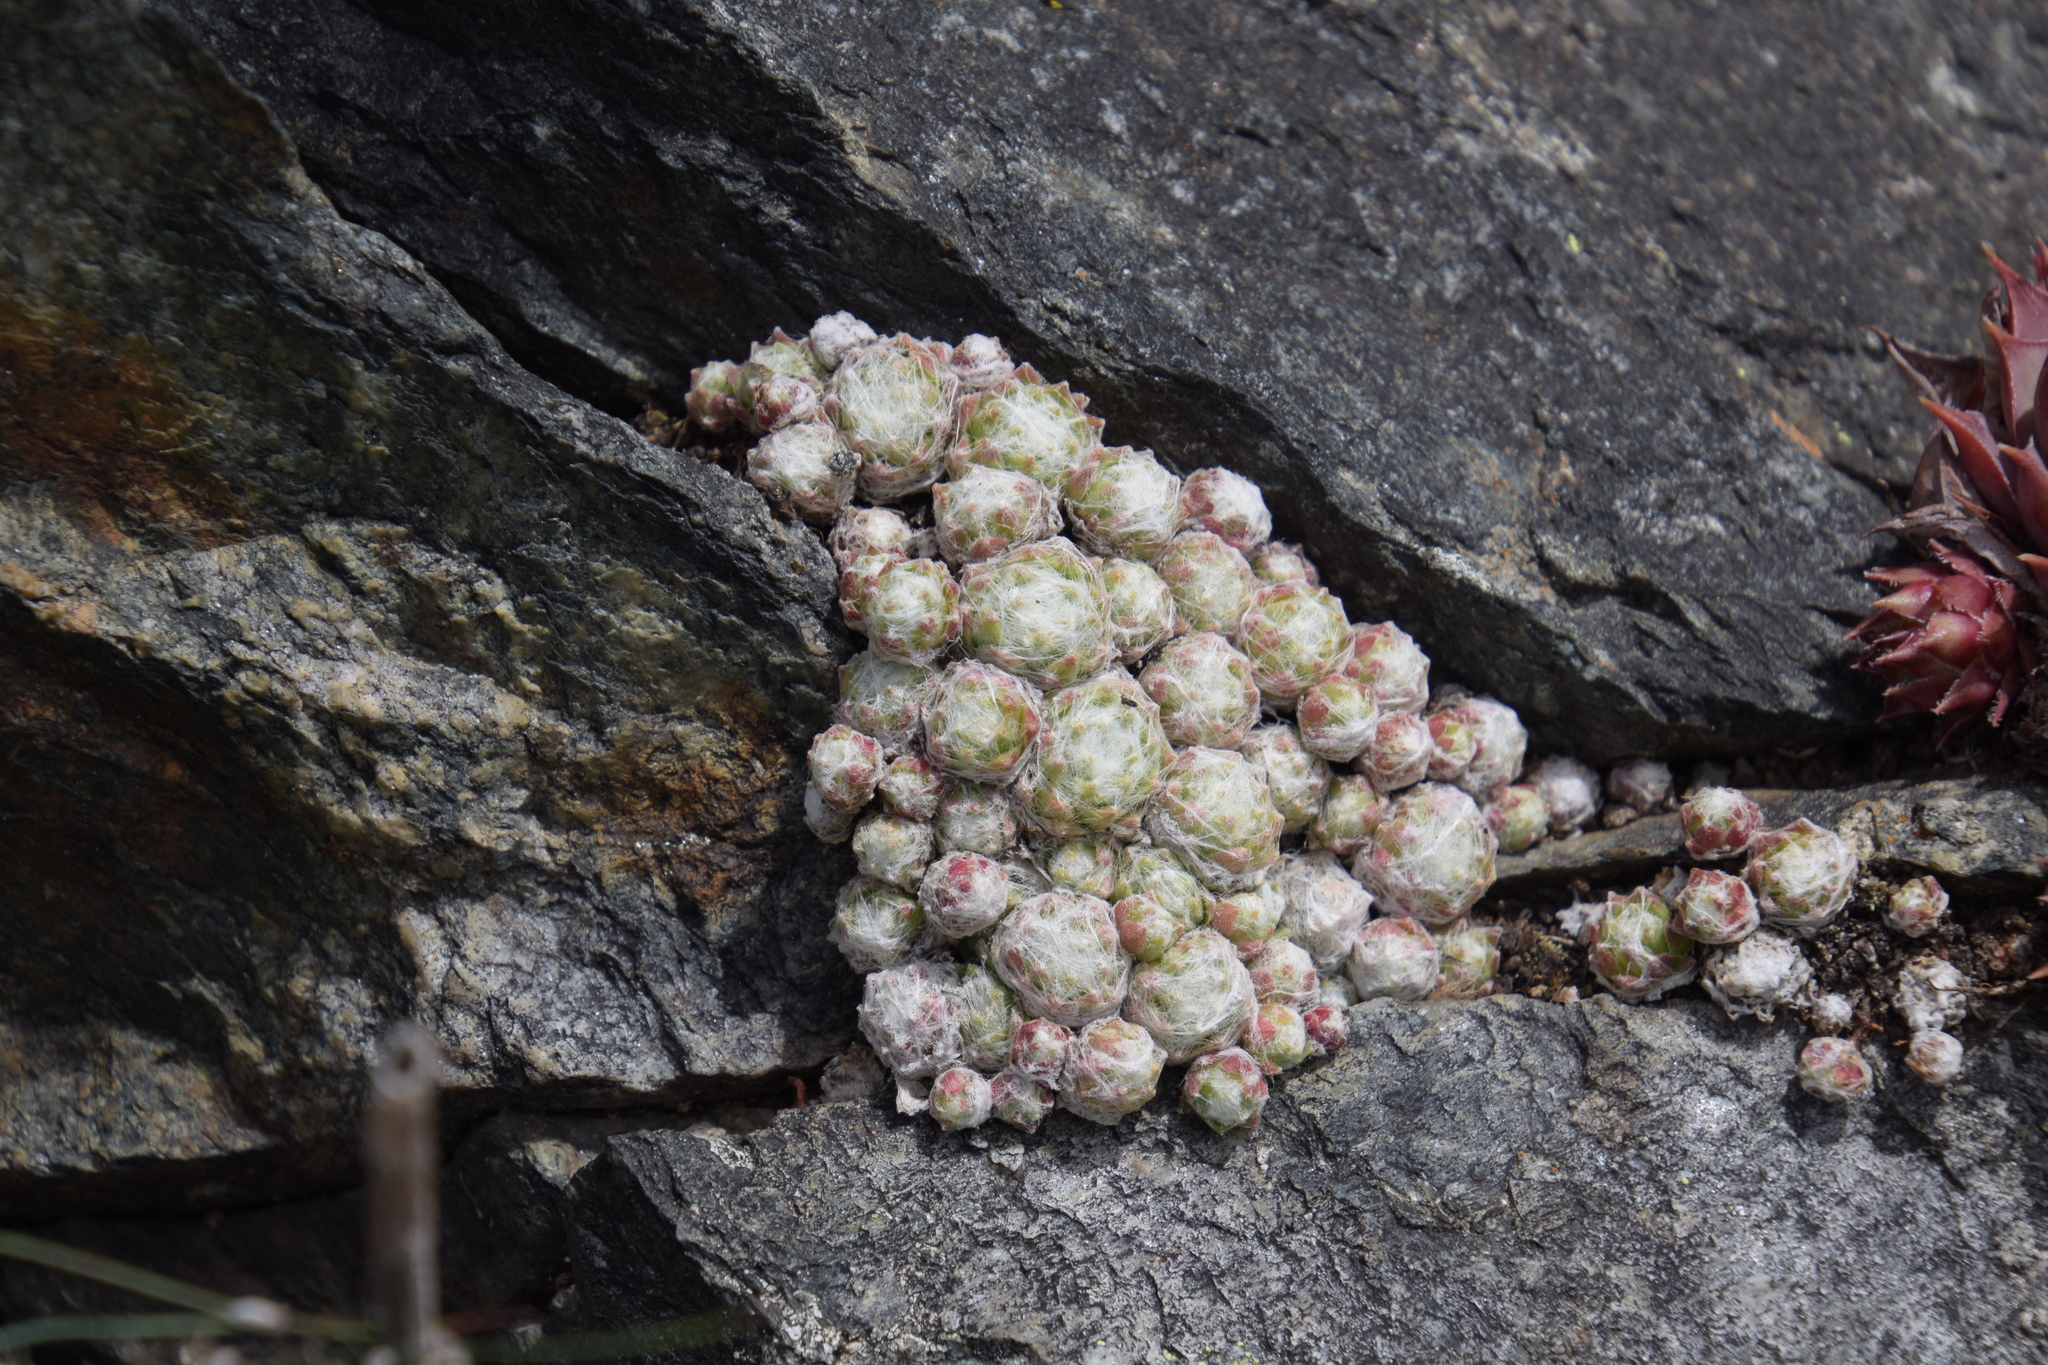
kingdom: Plantae
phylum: Tracheophyta
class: Magnoliopsida
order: Saxifragales
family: Crassulaceae
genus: Sempervivum
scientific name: Sempervivum arachnoideum
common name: Cobweb house-leek
